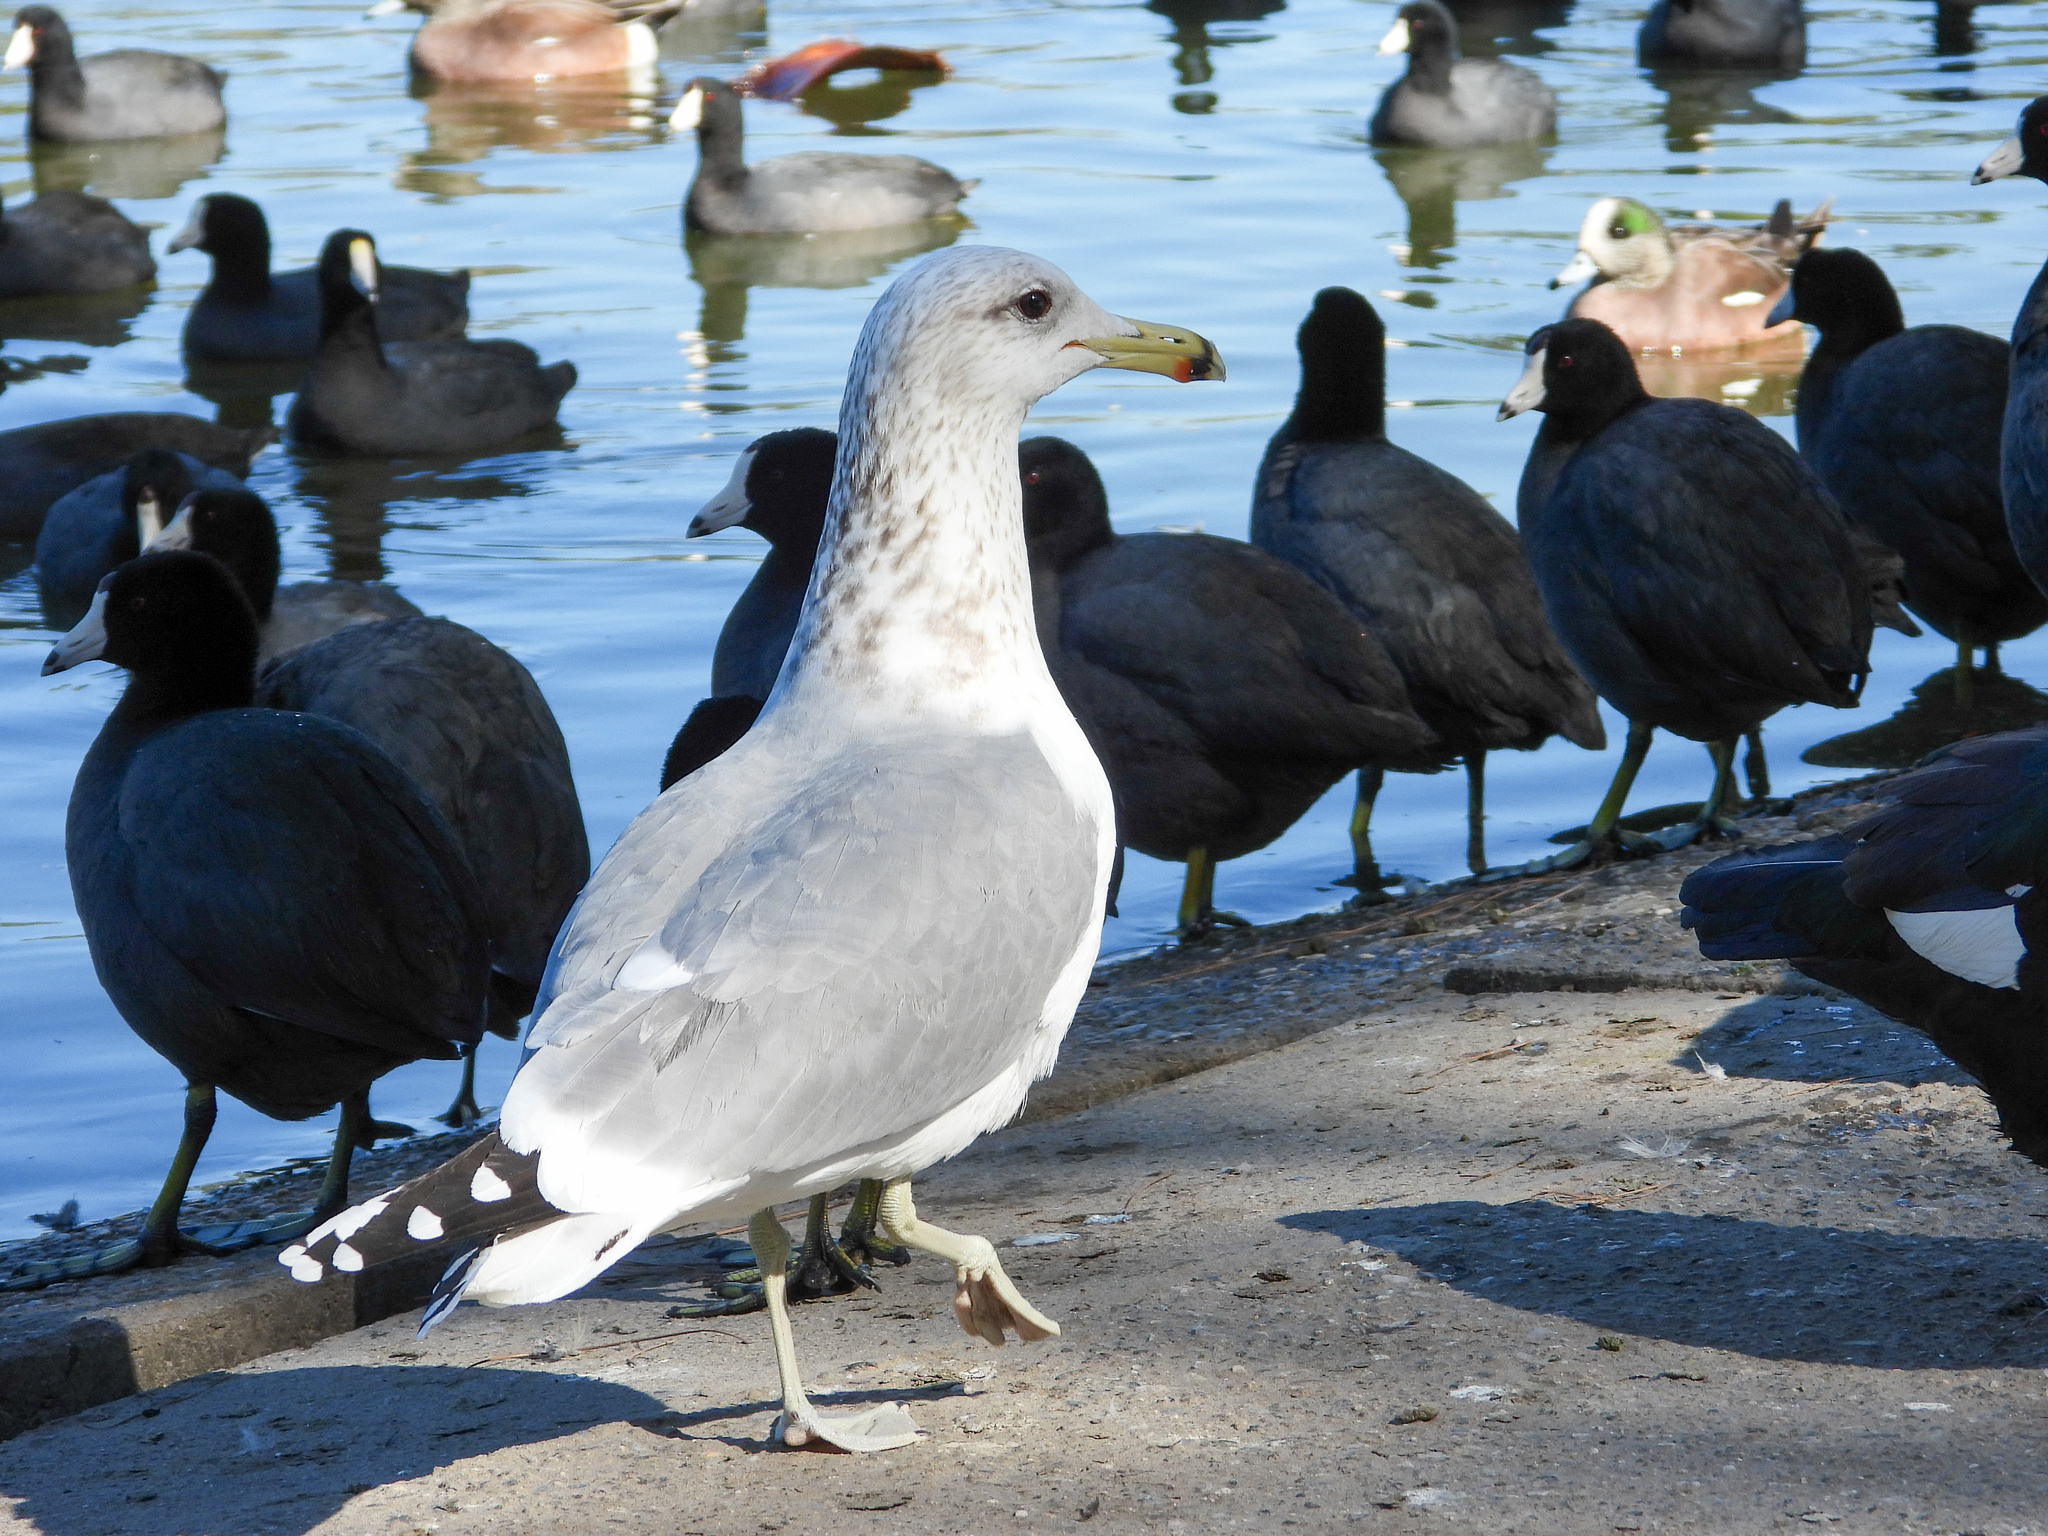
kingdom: Animalia
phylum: Chordata
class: Aves
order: Charadriiformes
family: Laridae
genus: Larus
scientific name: Larus californicus
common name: California gull
